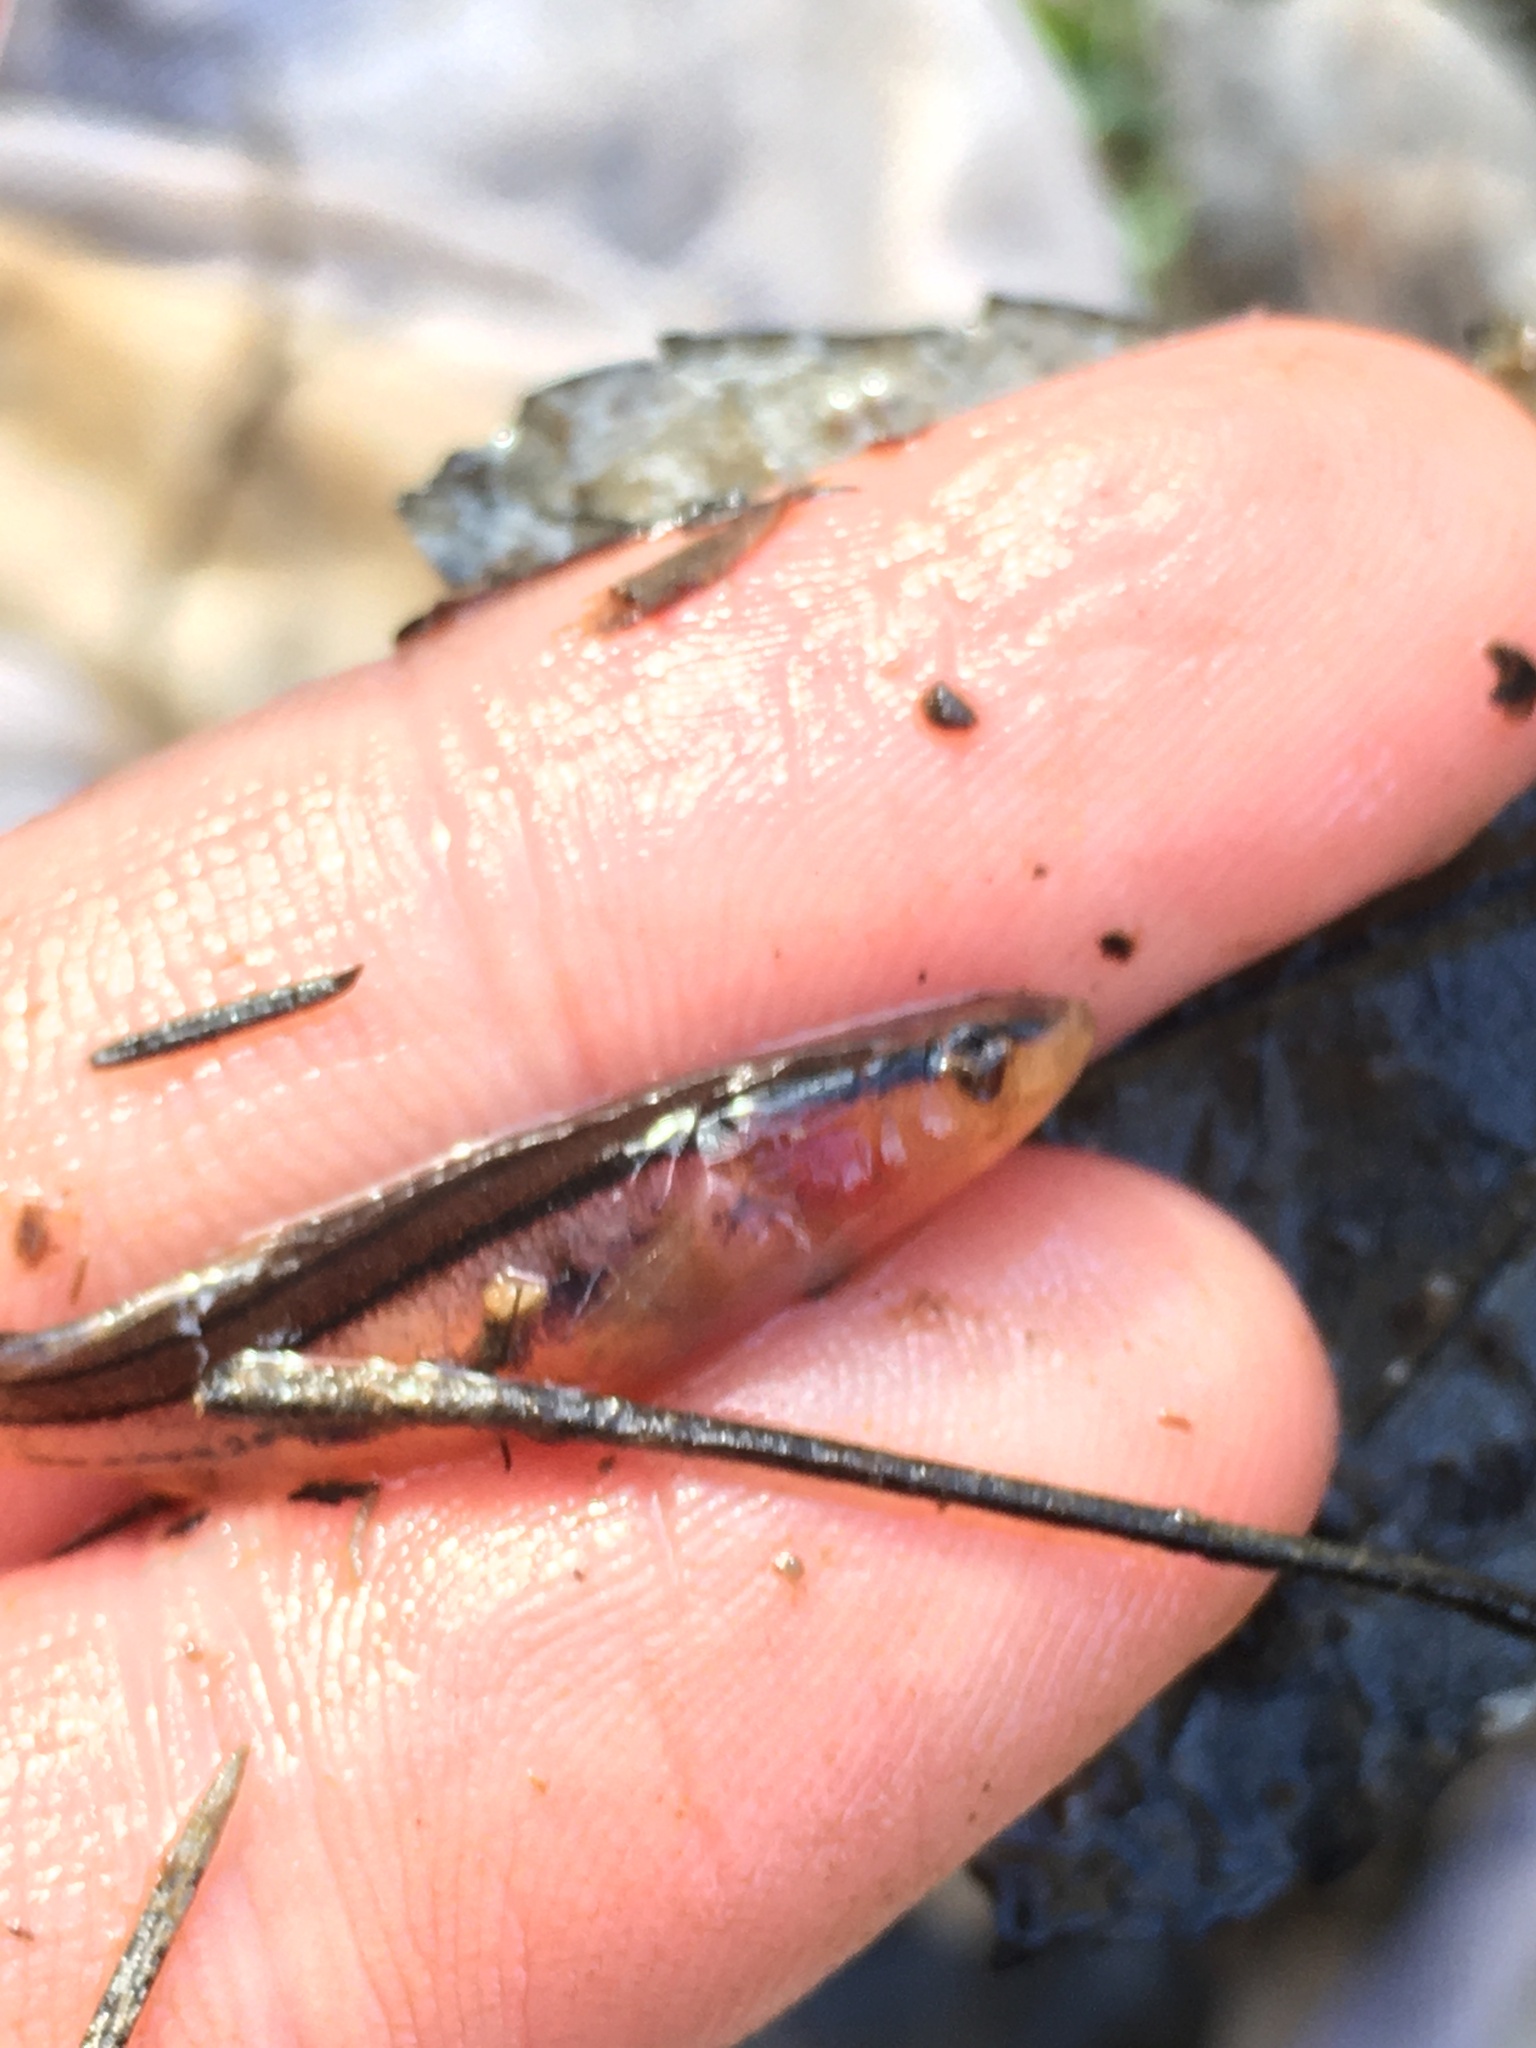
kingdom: Animalia
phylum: Chordata
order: Percopsiformes
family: Amblyopsidae
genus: Chologaster
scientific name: Chologaster cornuta
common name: Swampfish
